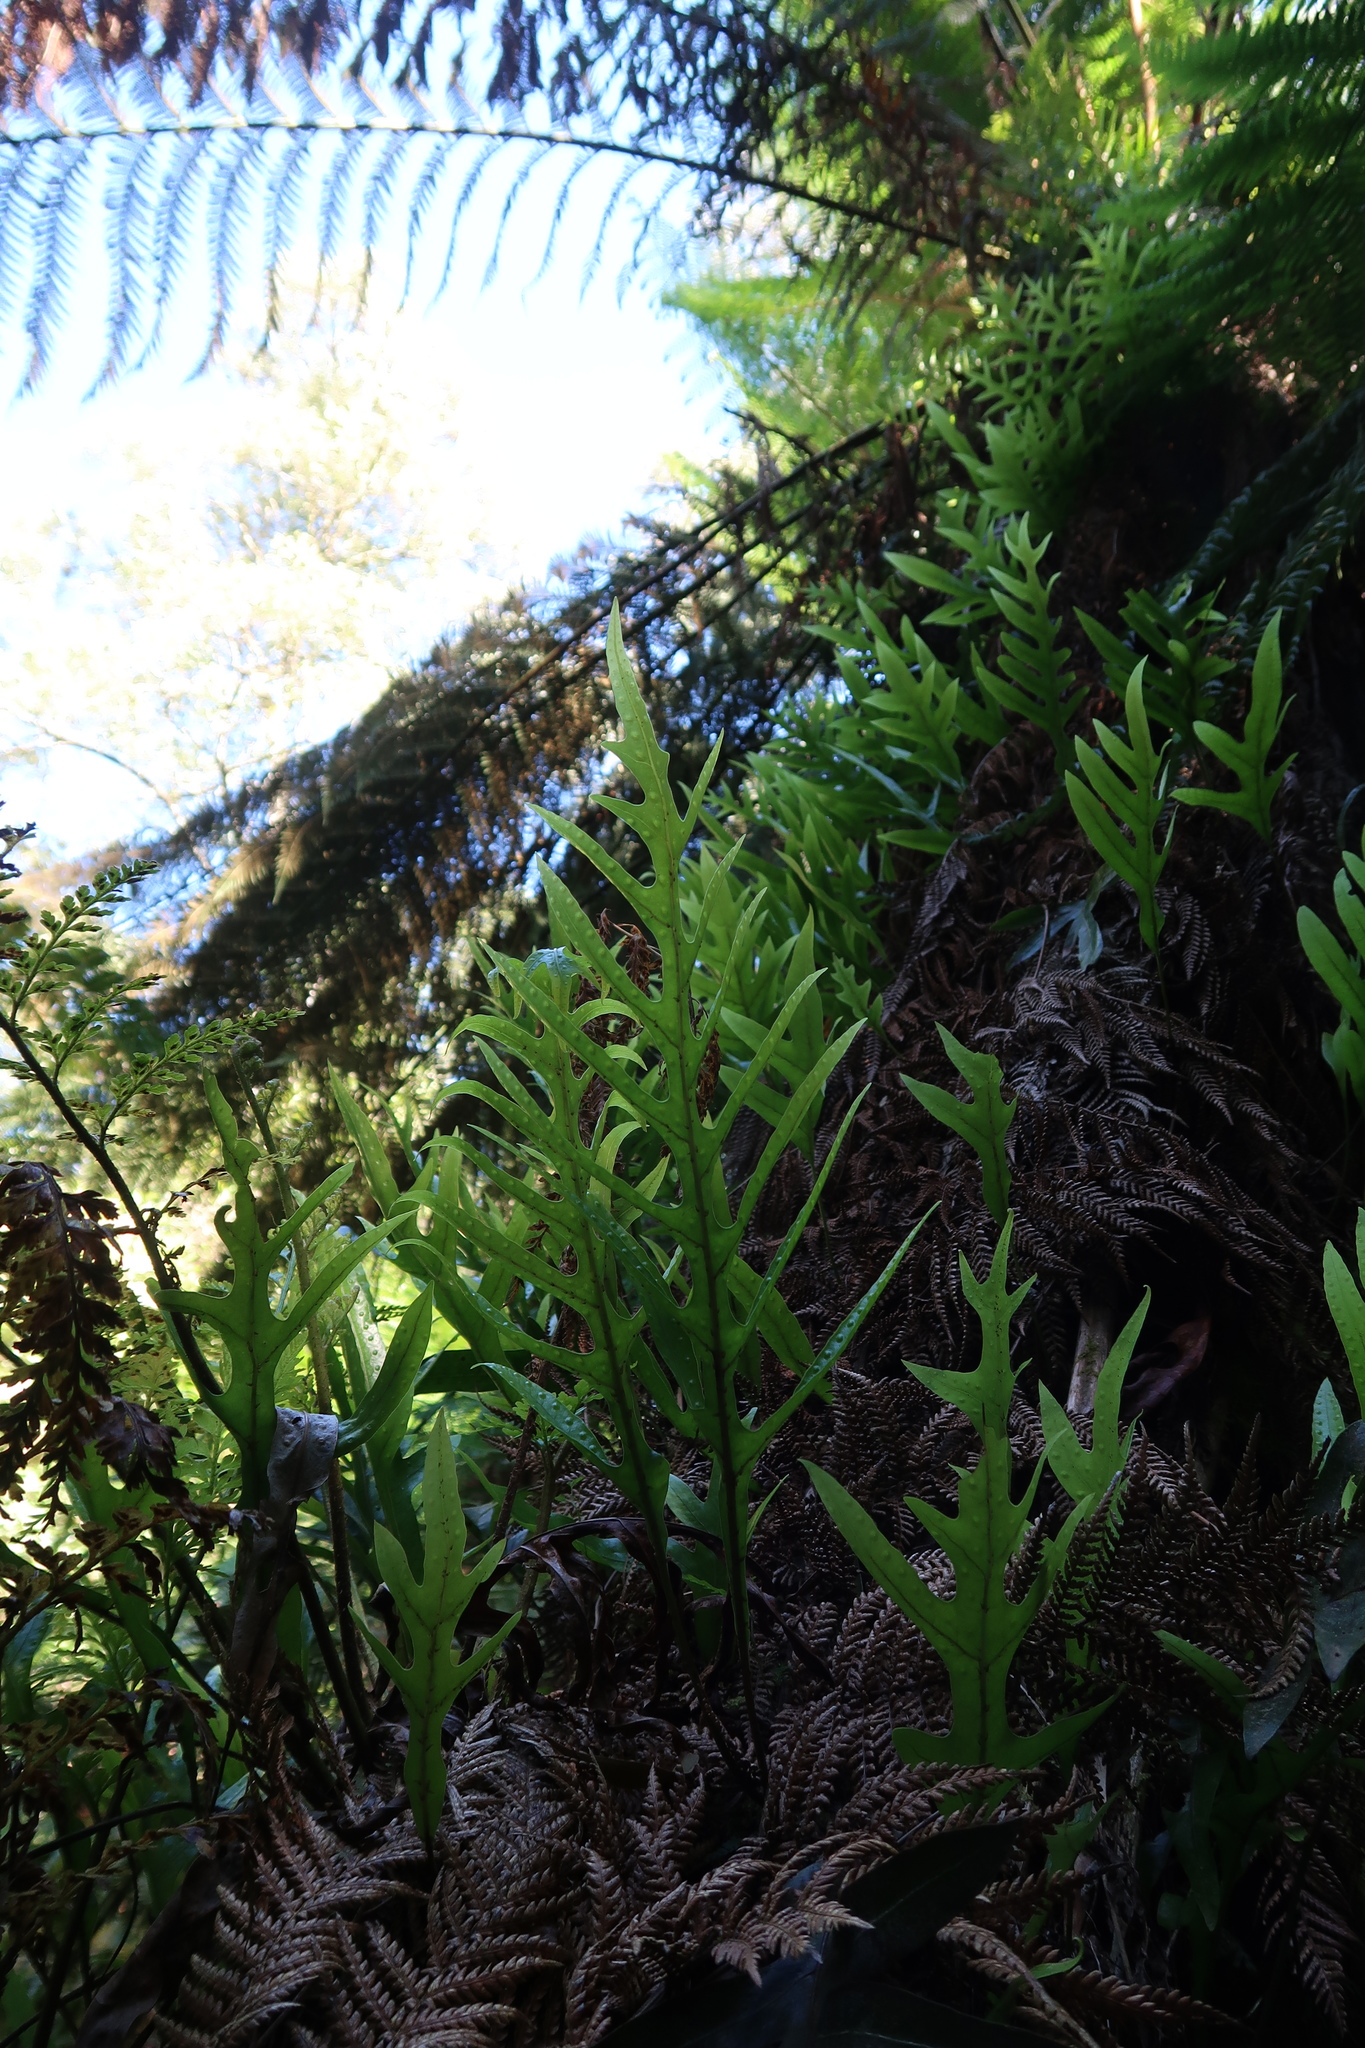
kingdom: Plantae
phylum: Tracheophyta
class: Polypodiopsida
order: Polypodiales
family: Polypodiaceae
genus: Lecanopteris
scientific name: Lecanopteris pustulata
